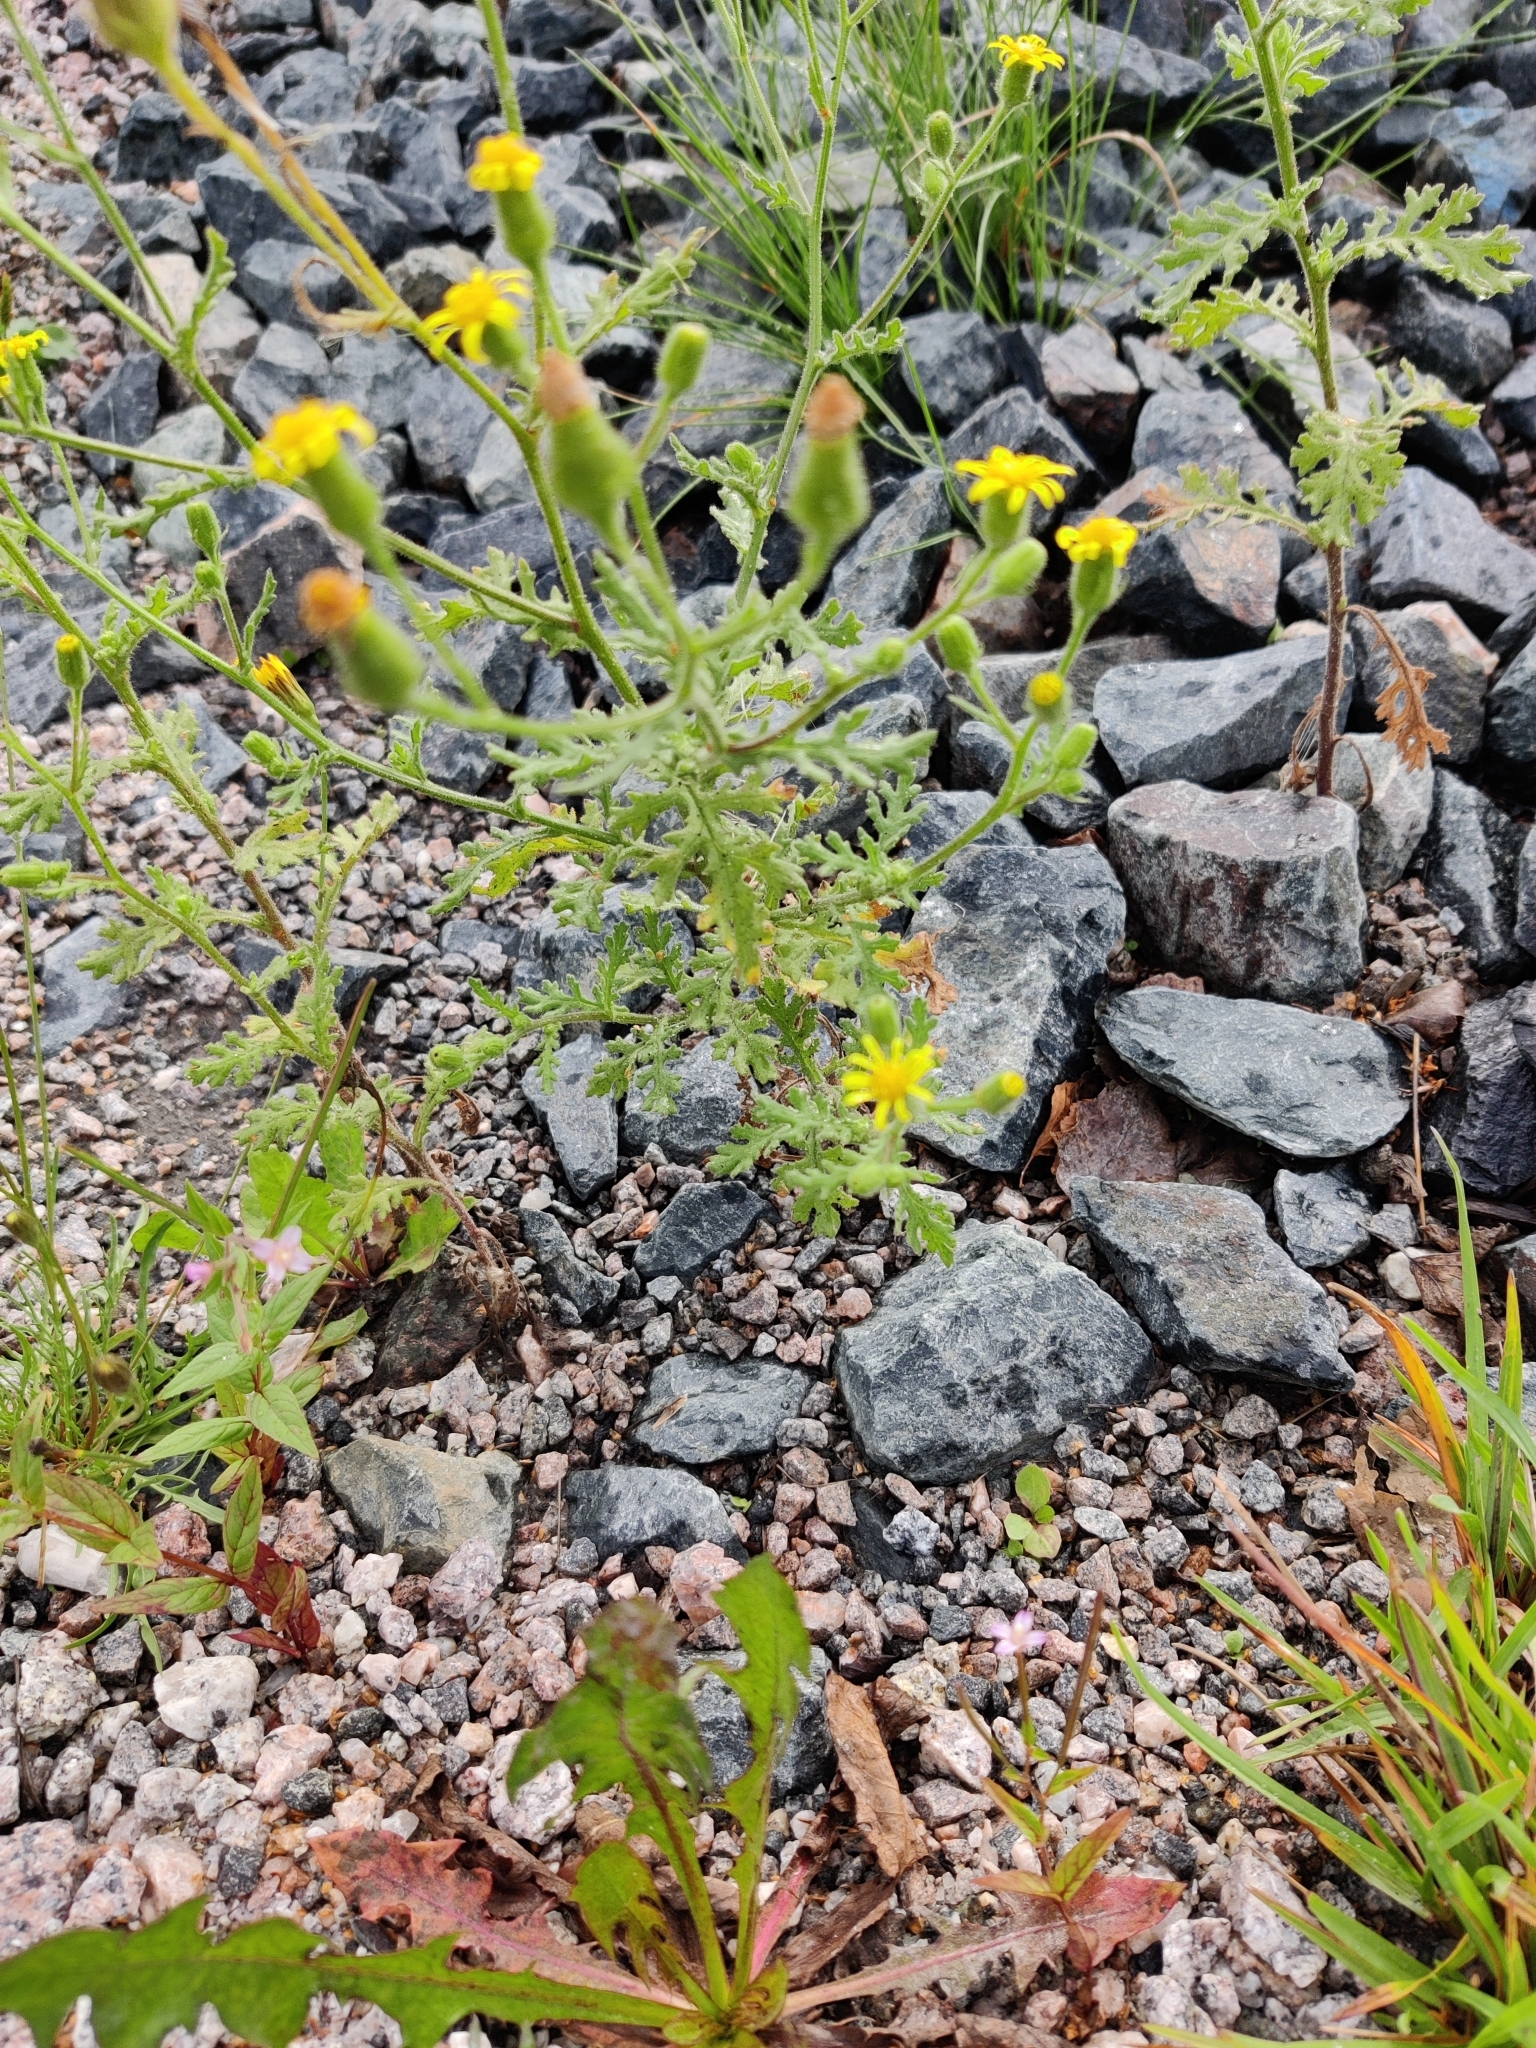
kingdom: Plantae
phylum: Tracheophyta
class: Magnoliopsida
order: Asterales
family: Asteraceae
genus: Senecio
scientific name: Senecio viscosus
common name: Sticky groundsel
